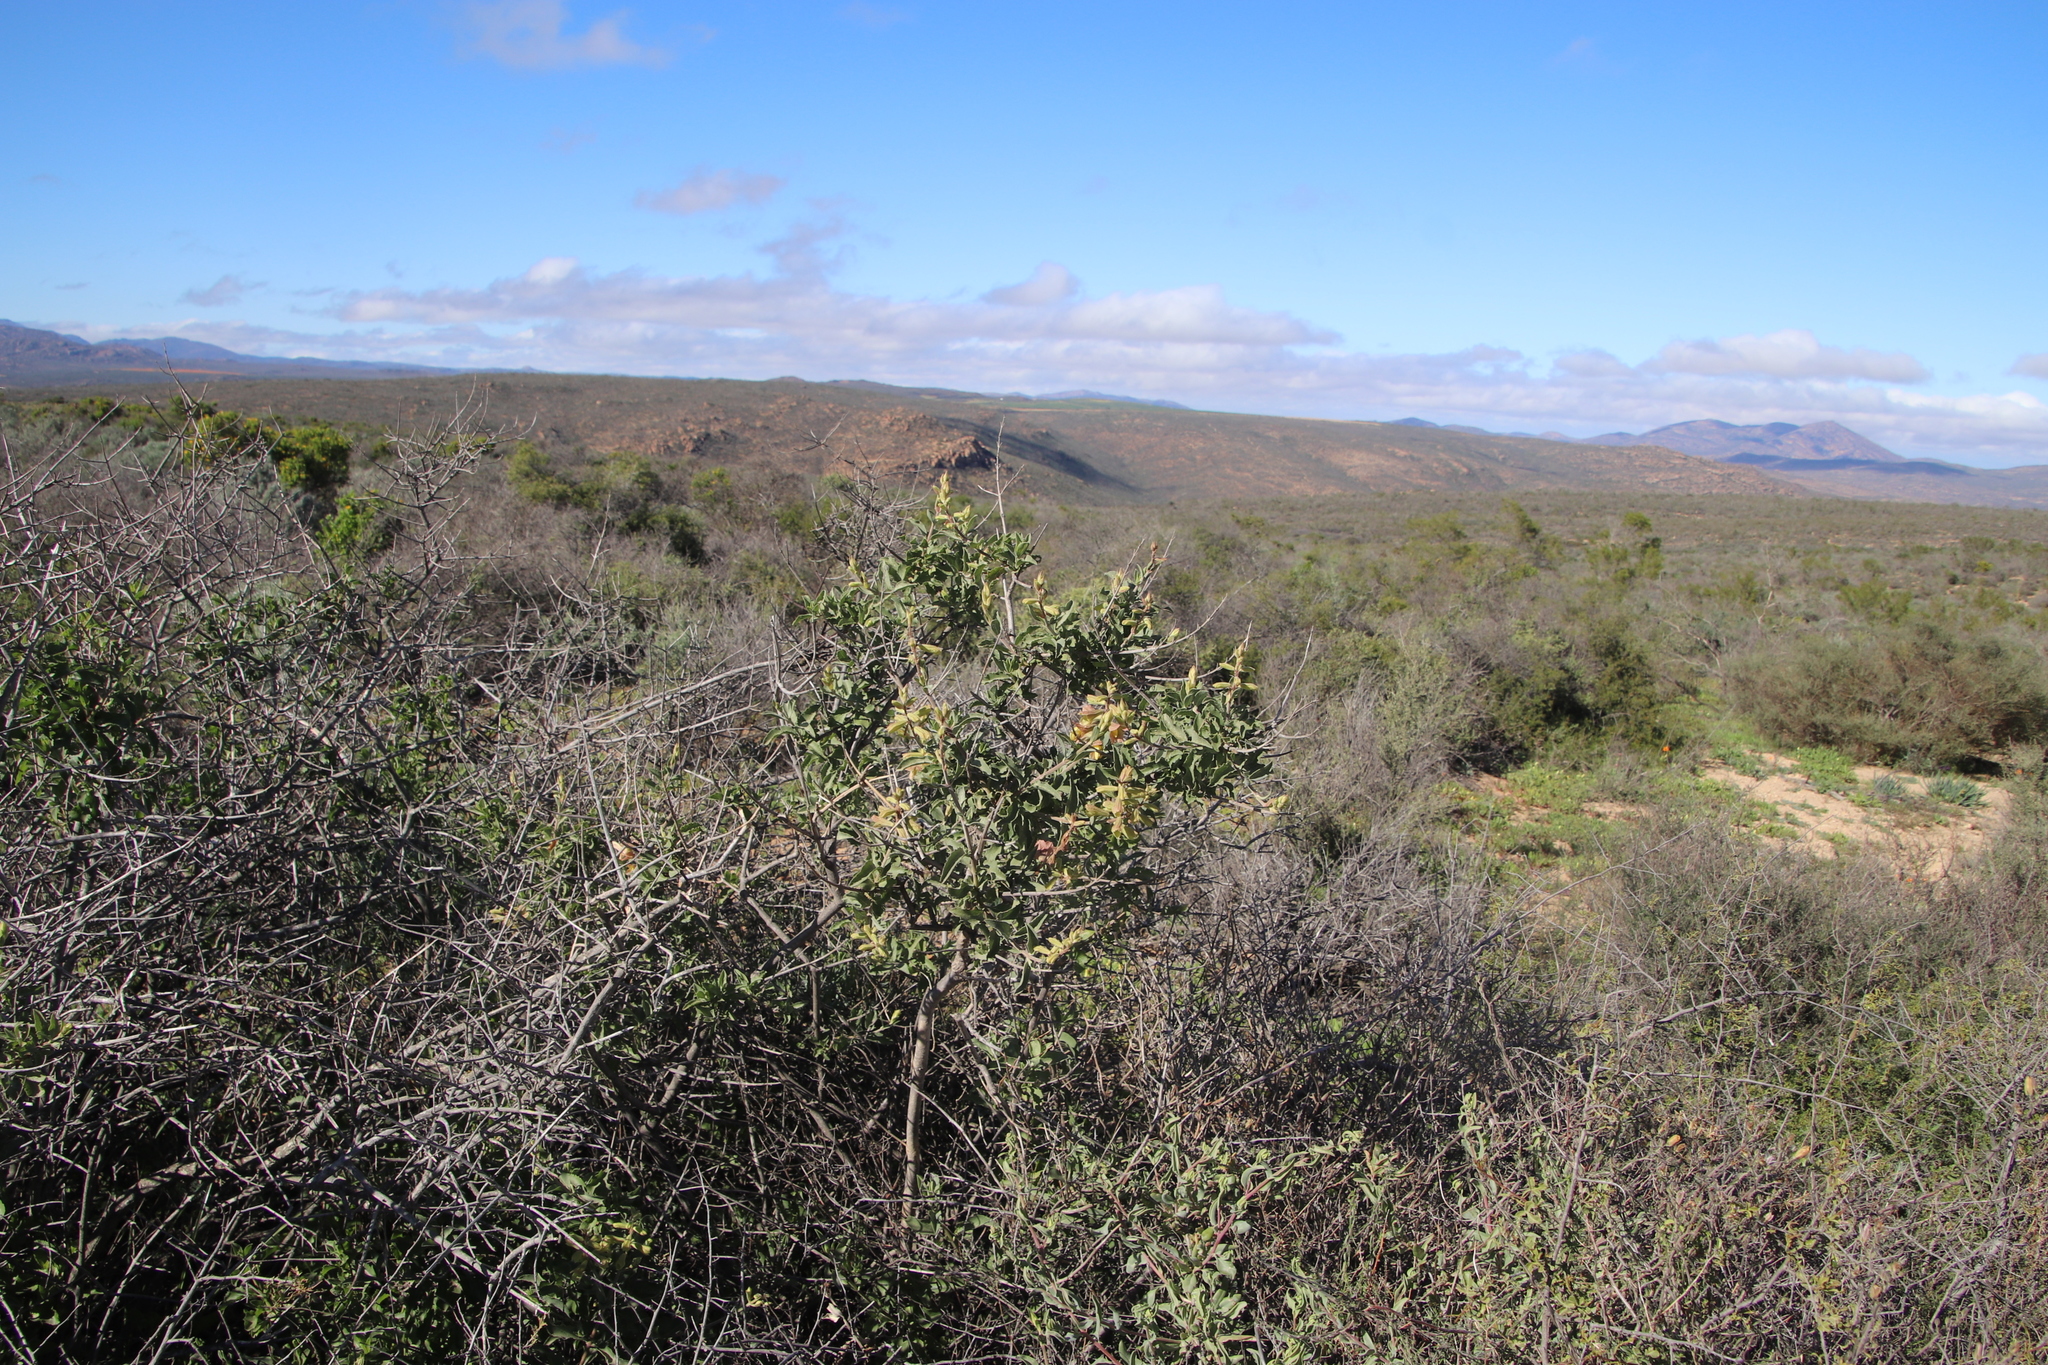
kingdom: Plantae
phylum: Tracheophyta
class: Magnoliopsida
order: Lamiales
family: Lamiaceae
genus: Salvia
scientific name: Salvia lanceolata
